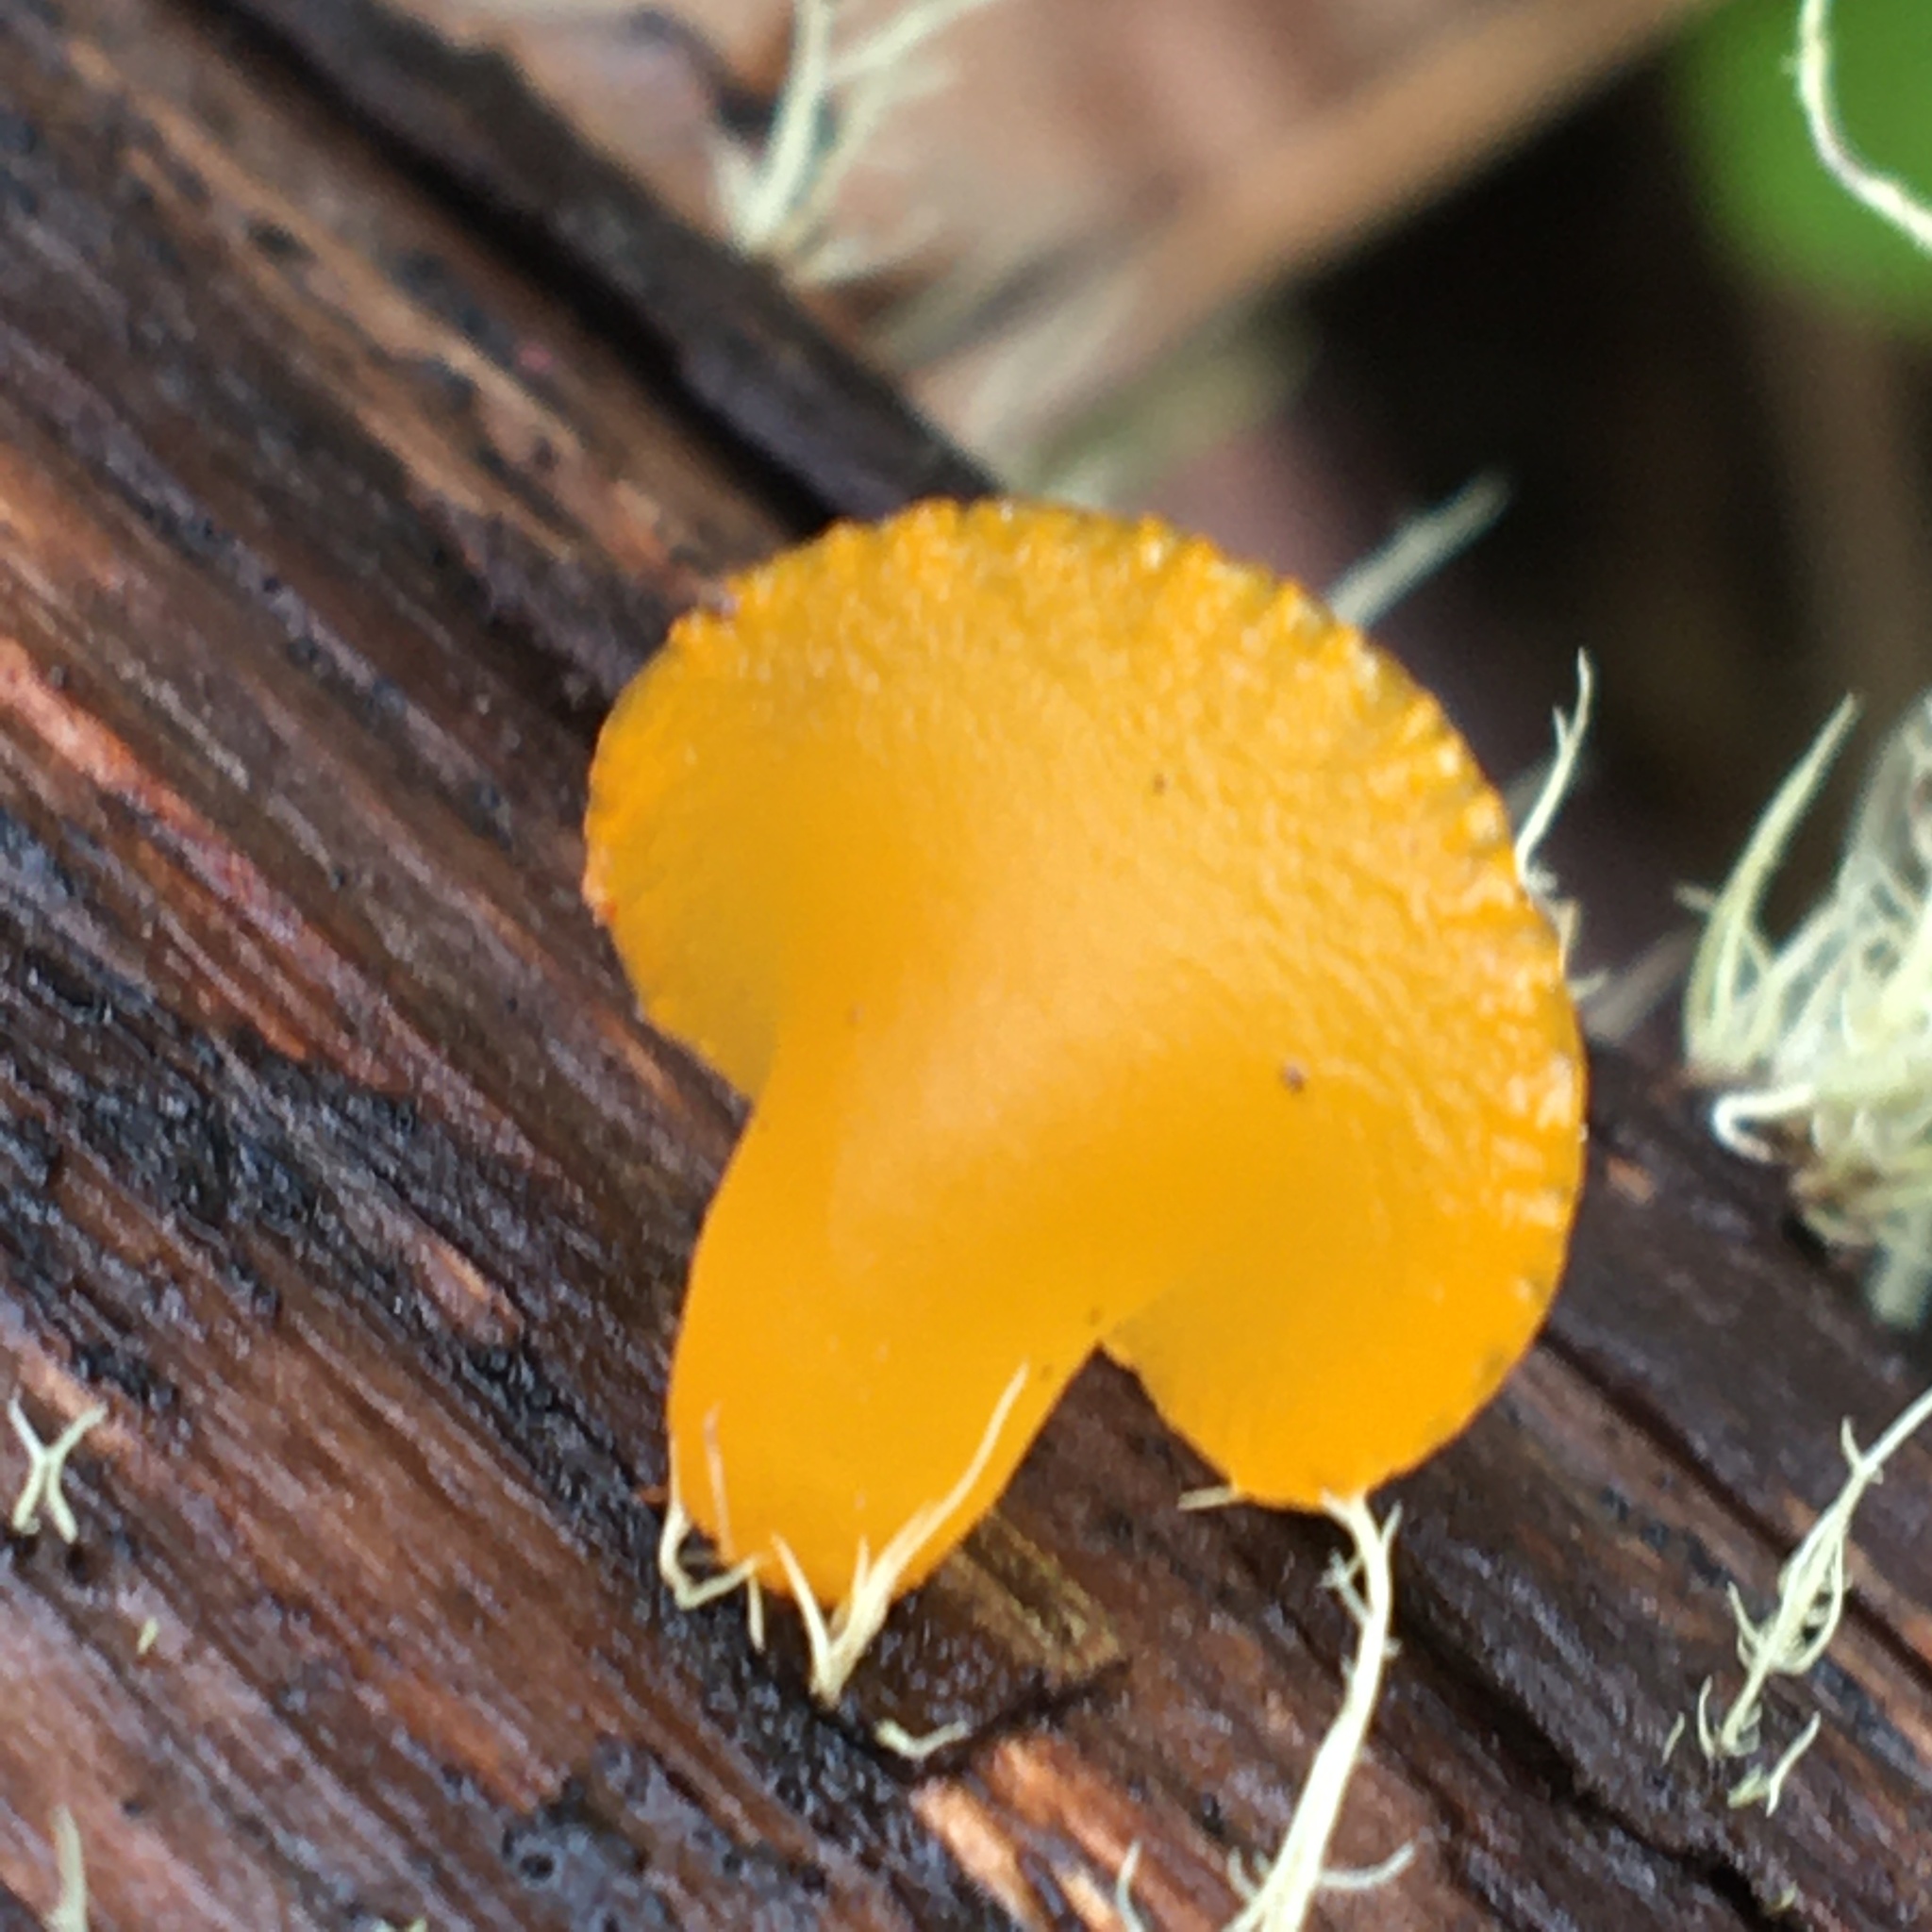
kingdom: Fungi
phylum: Basidiomycota
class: Dacrymycetes
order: Dacrymycetales
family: Dacrymycetaceae
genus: Heterotextus
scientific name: Heterotextus peziziformis
